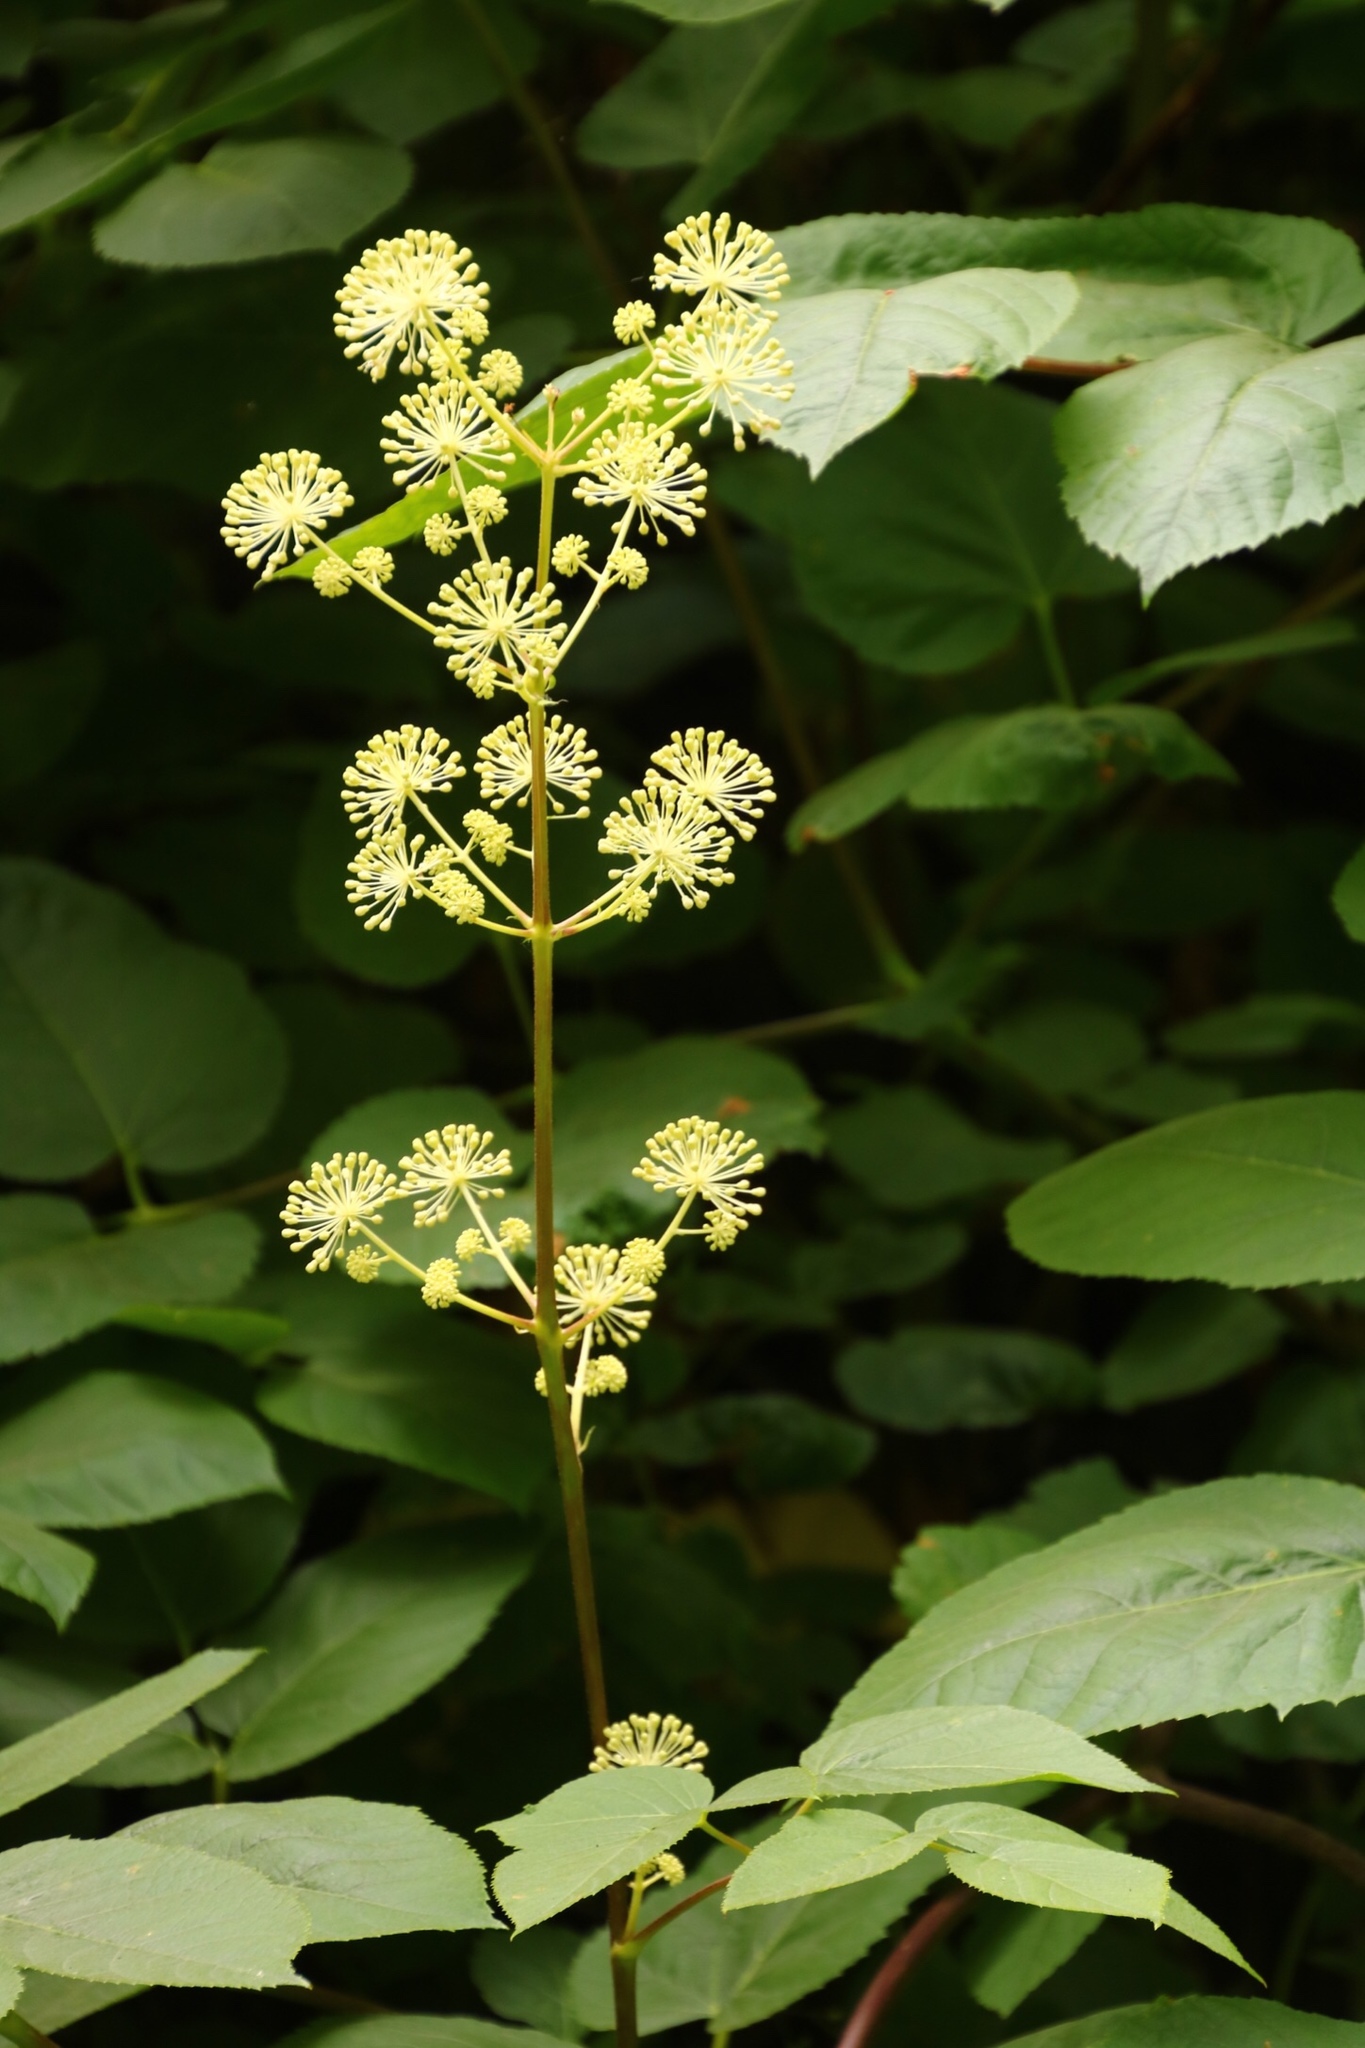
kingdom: Plantae
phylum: Tracheophyta
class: Magnoliopsida
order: Apiales
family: Araliaceae
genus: Aralia
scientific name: Aralia californica
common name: California-ginseng
